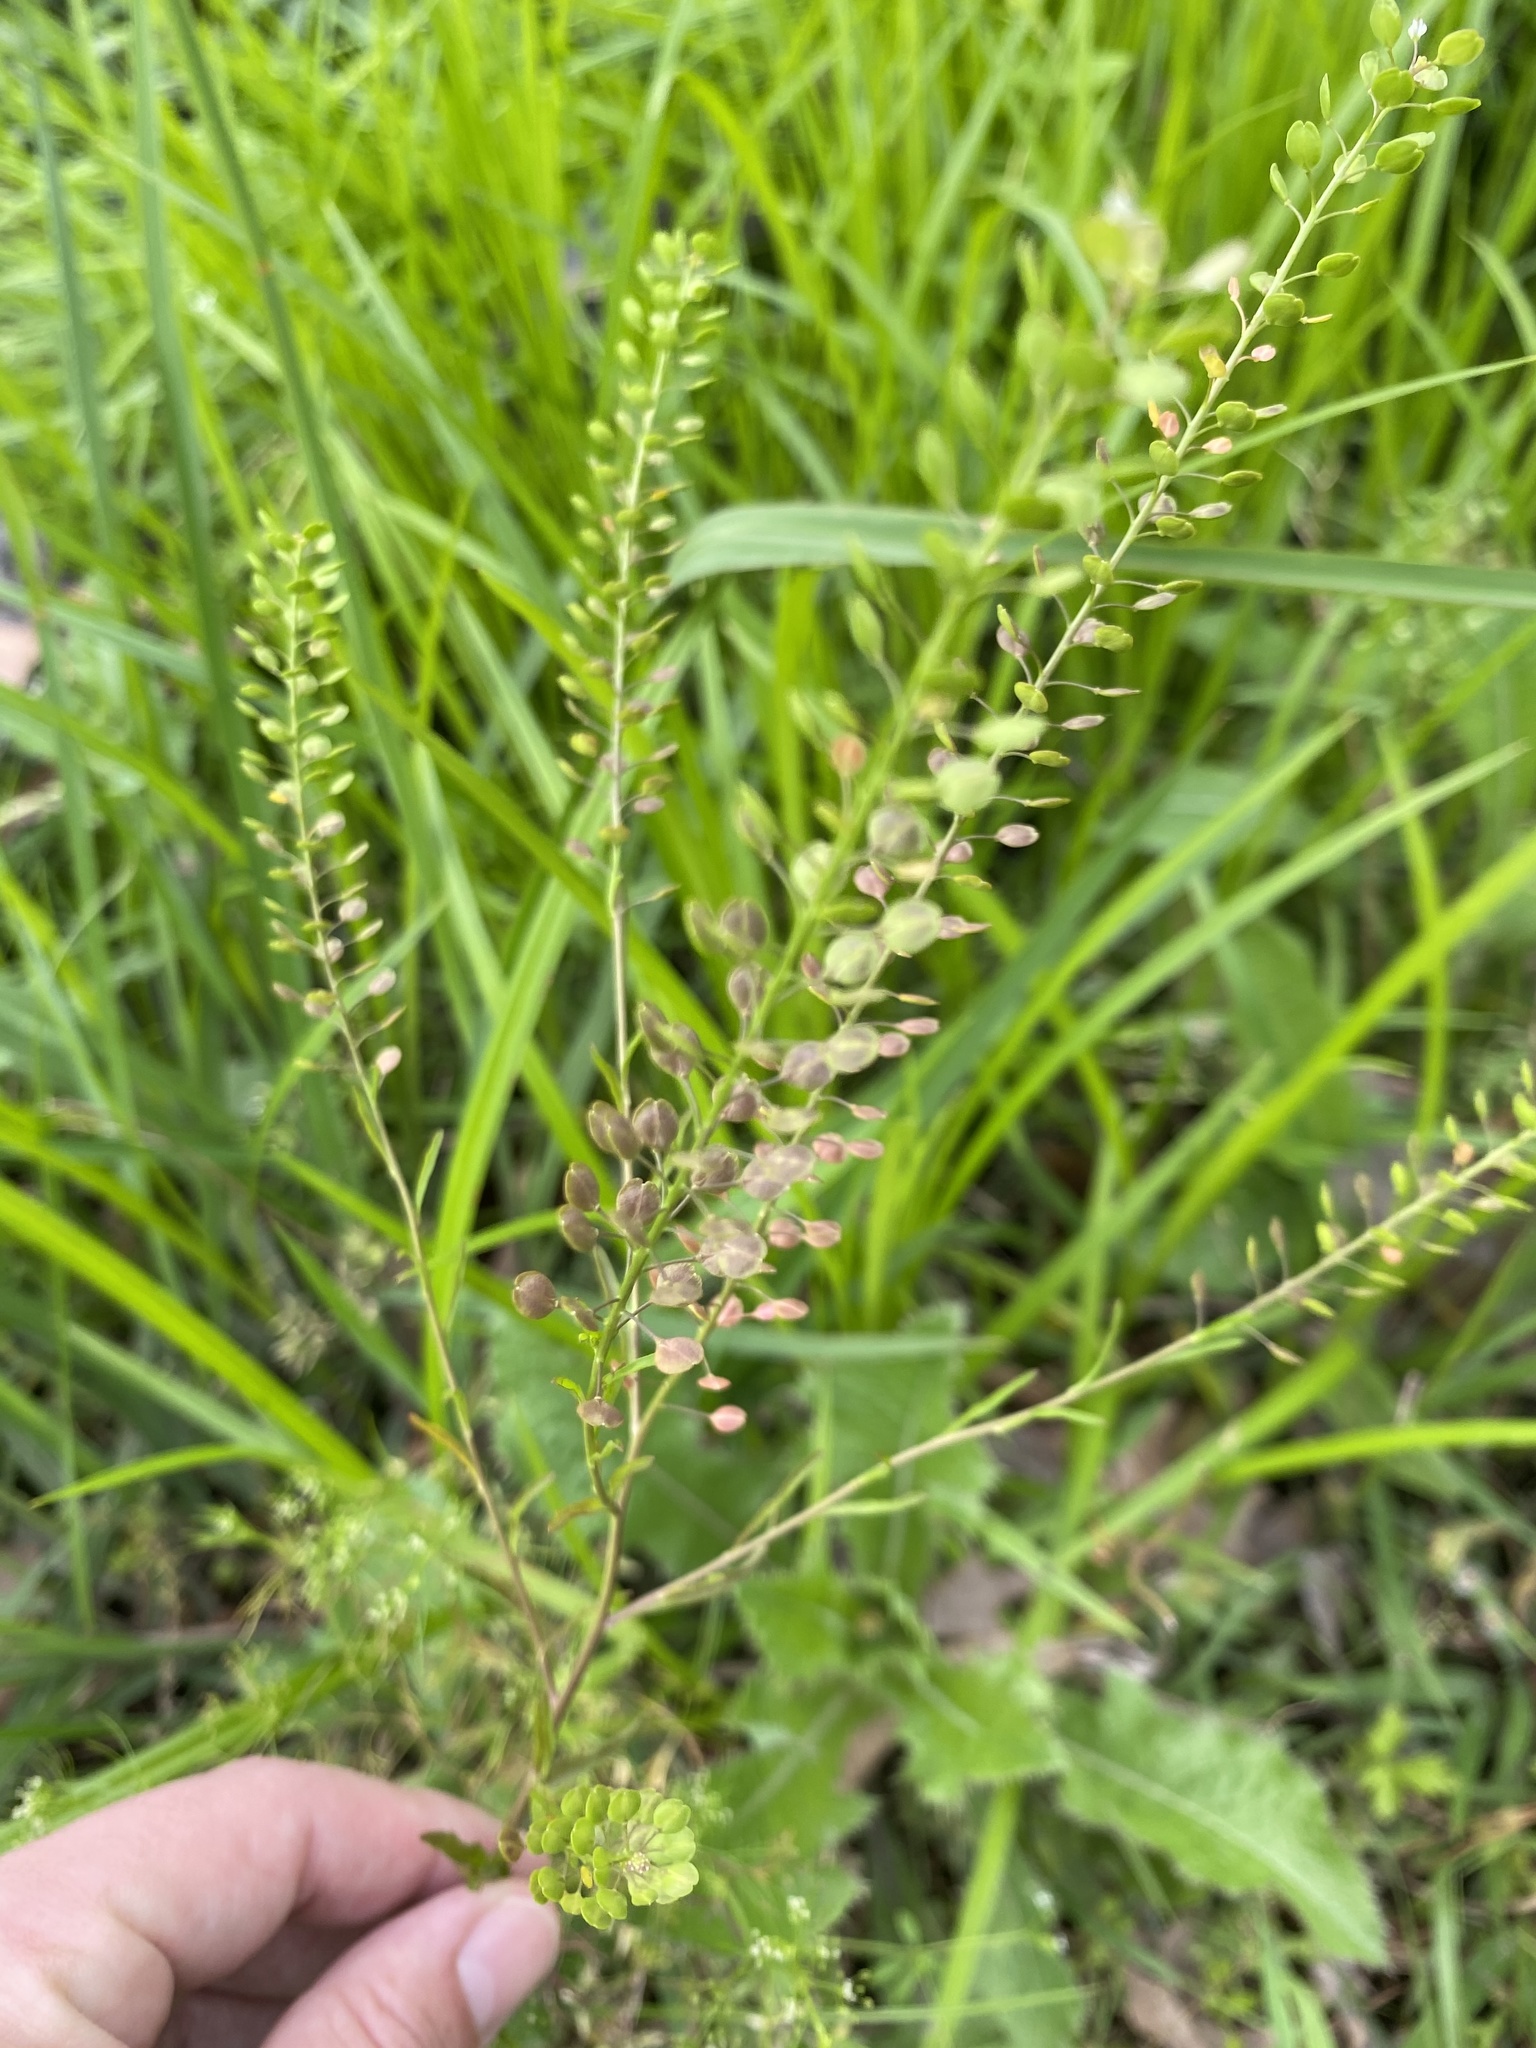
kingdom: Plantae
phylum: Tracheophyta
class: Magnoliopsida
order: Brassicales
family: Brassicaceae
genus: Lepidium
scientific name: Lepidium virginicum
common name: Least pepperwort
